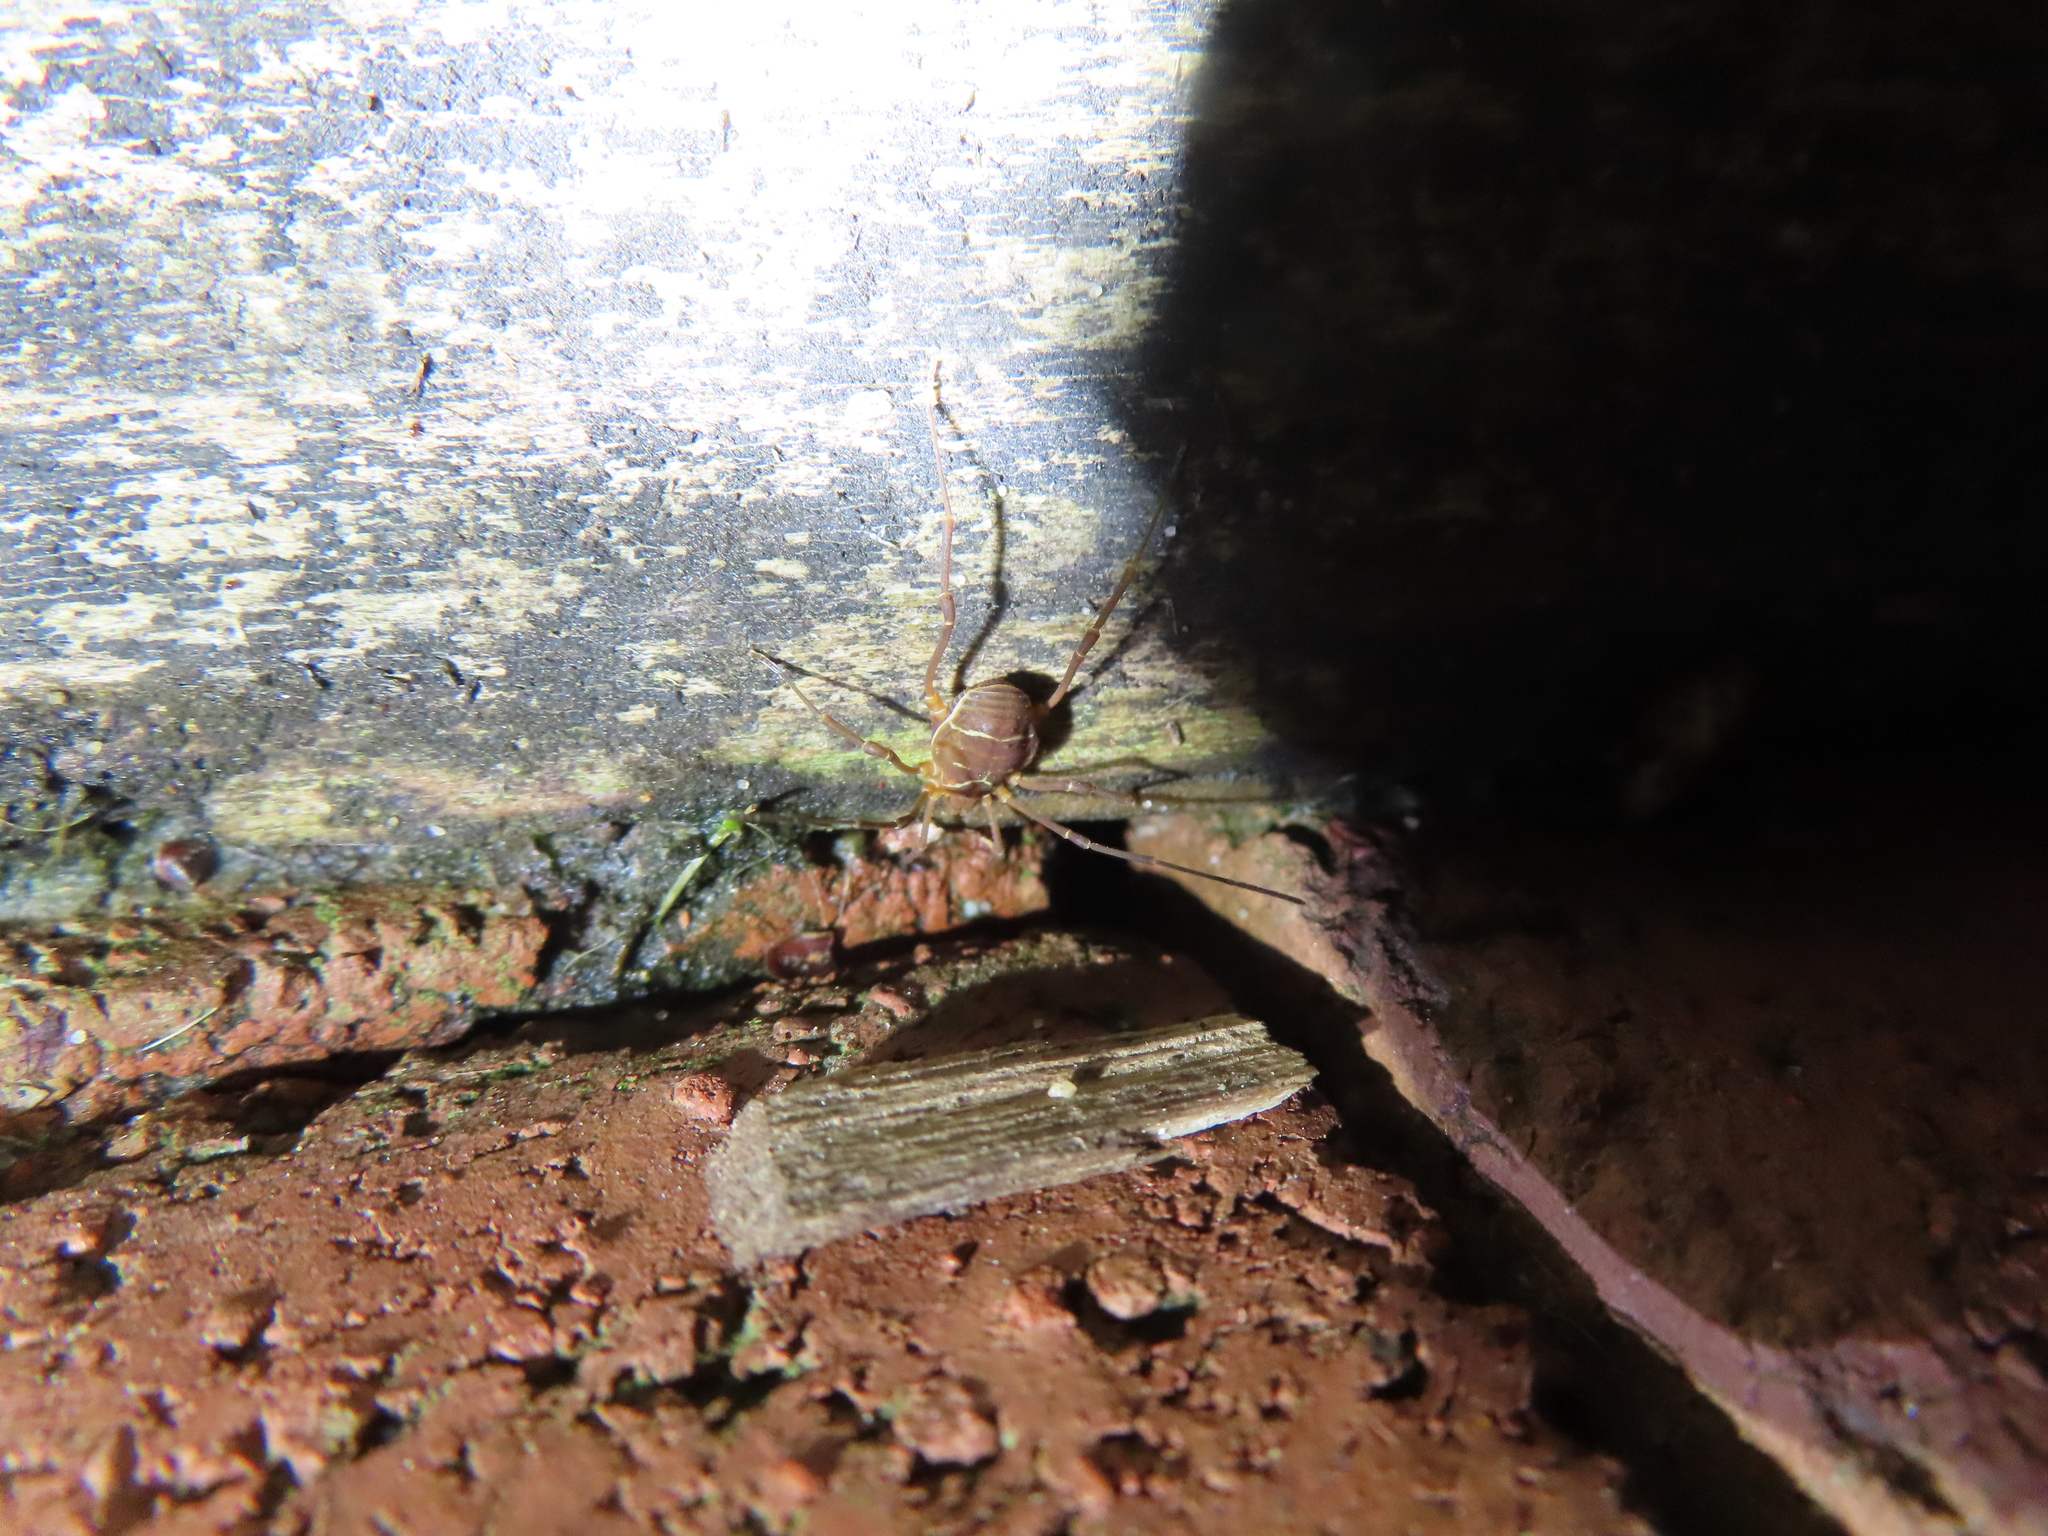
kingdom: Animalia
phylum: Arthropoda
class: Arachnida
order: Opiliones
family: Cosmetidae
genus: Libitioides
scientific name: Libitioides sayi
